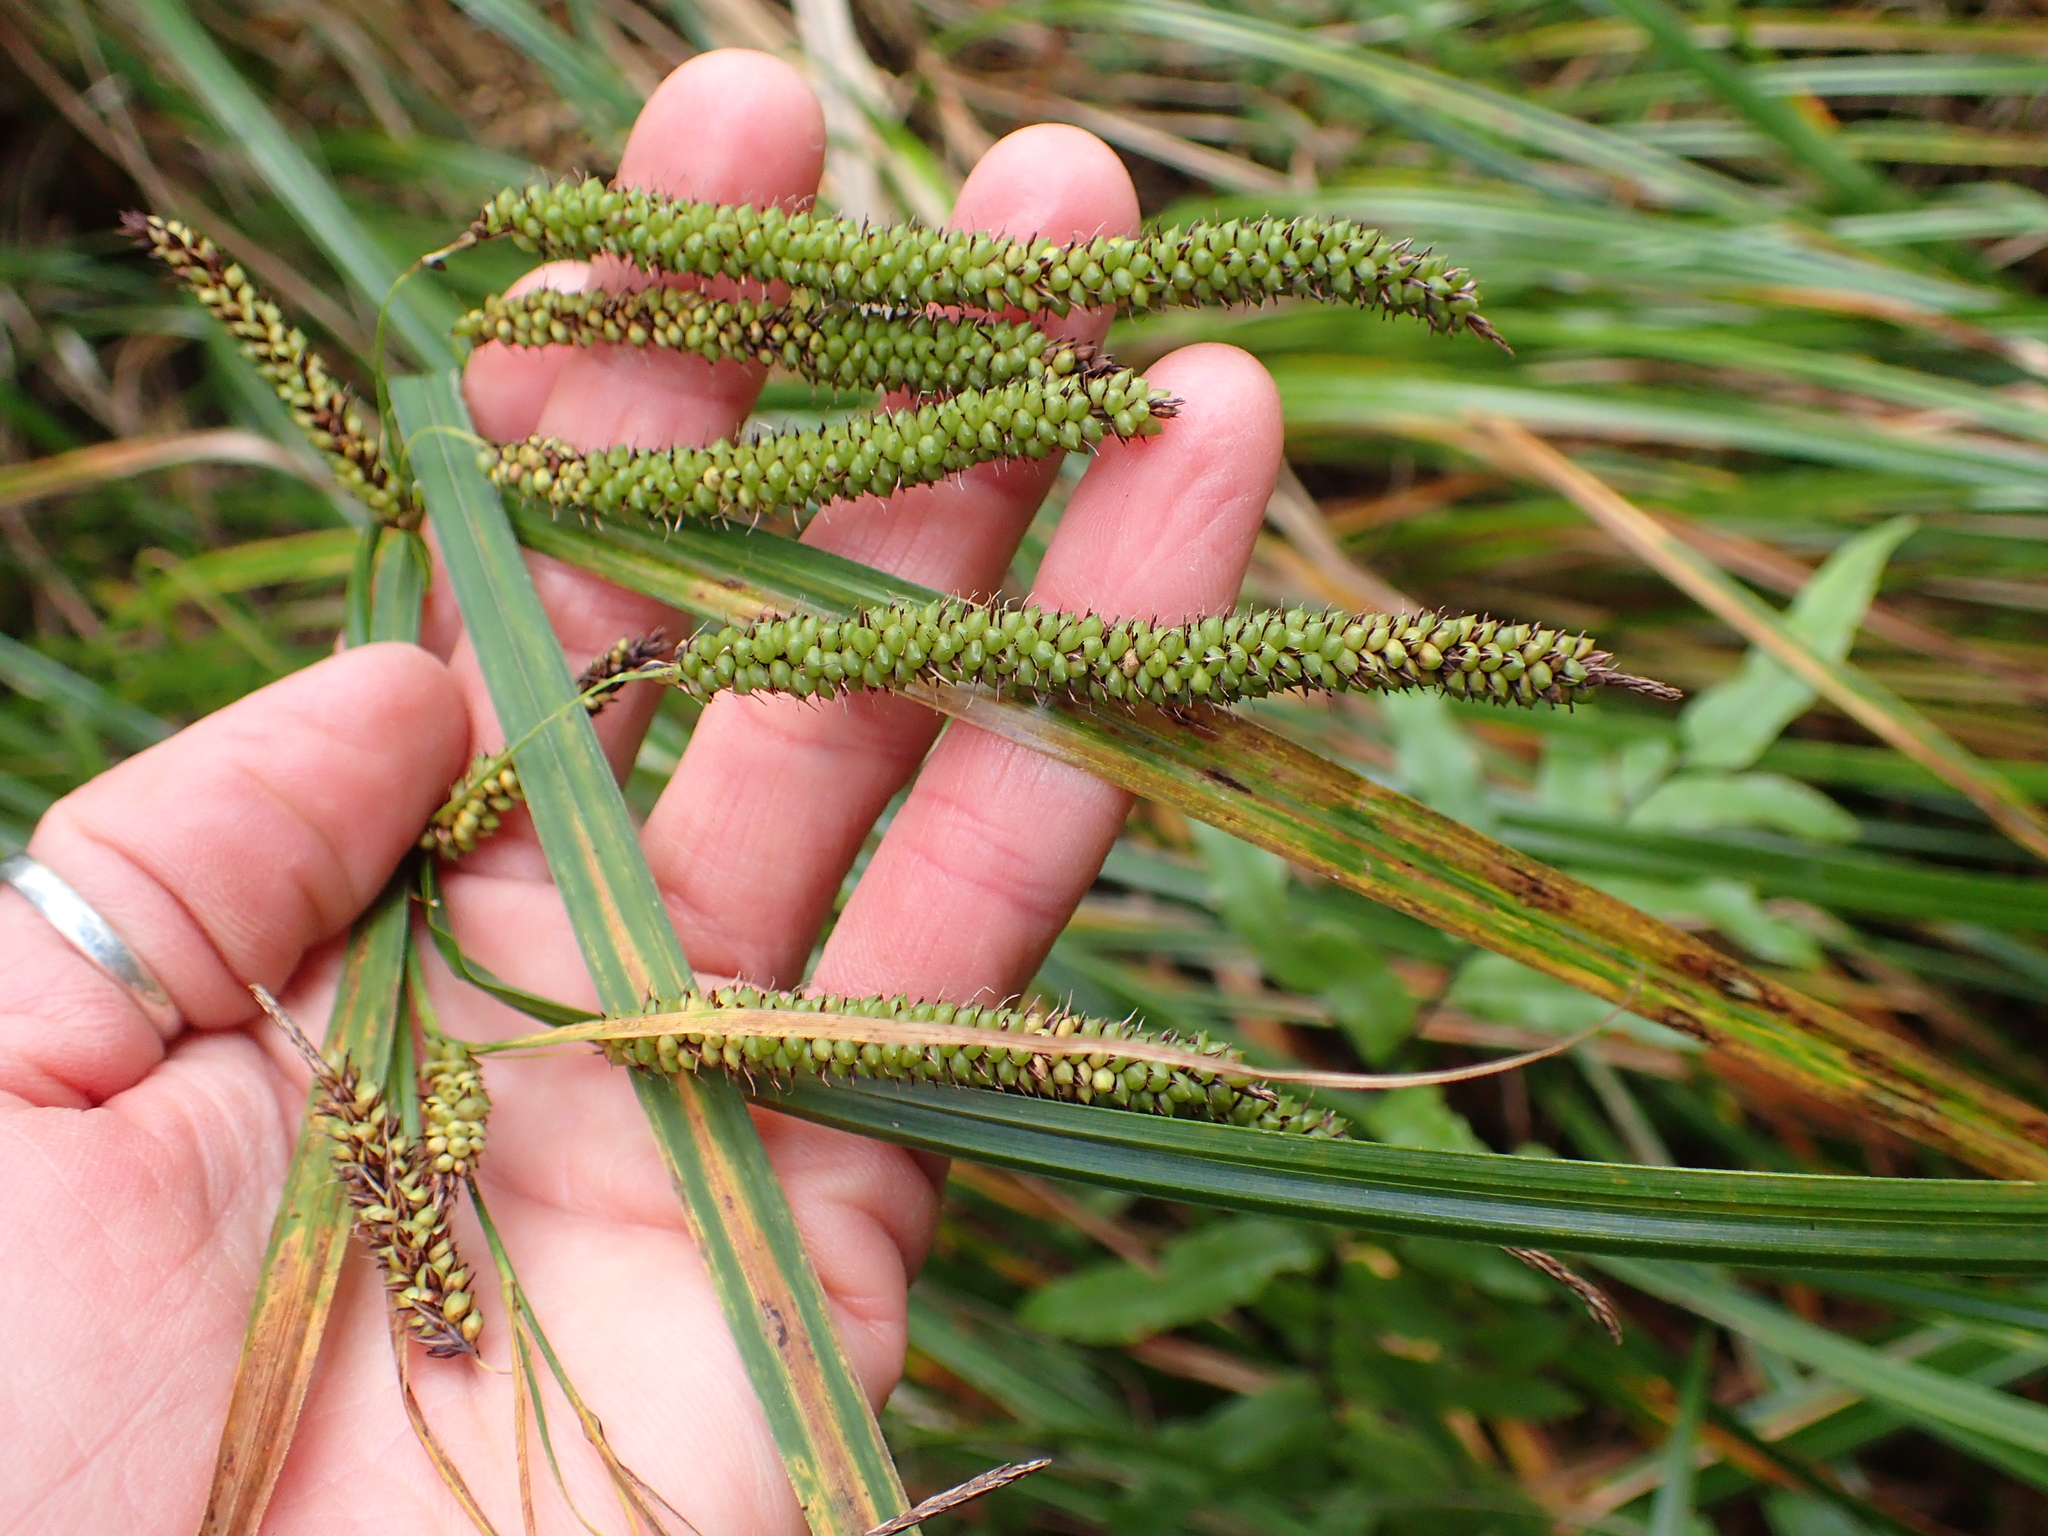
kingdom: Plantae
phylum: Tracheophyta
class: Liliopsida
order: Poales
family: Cyperaceae
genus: Carex
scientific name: Carex coriacea
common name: Rautahi
